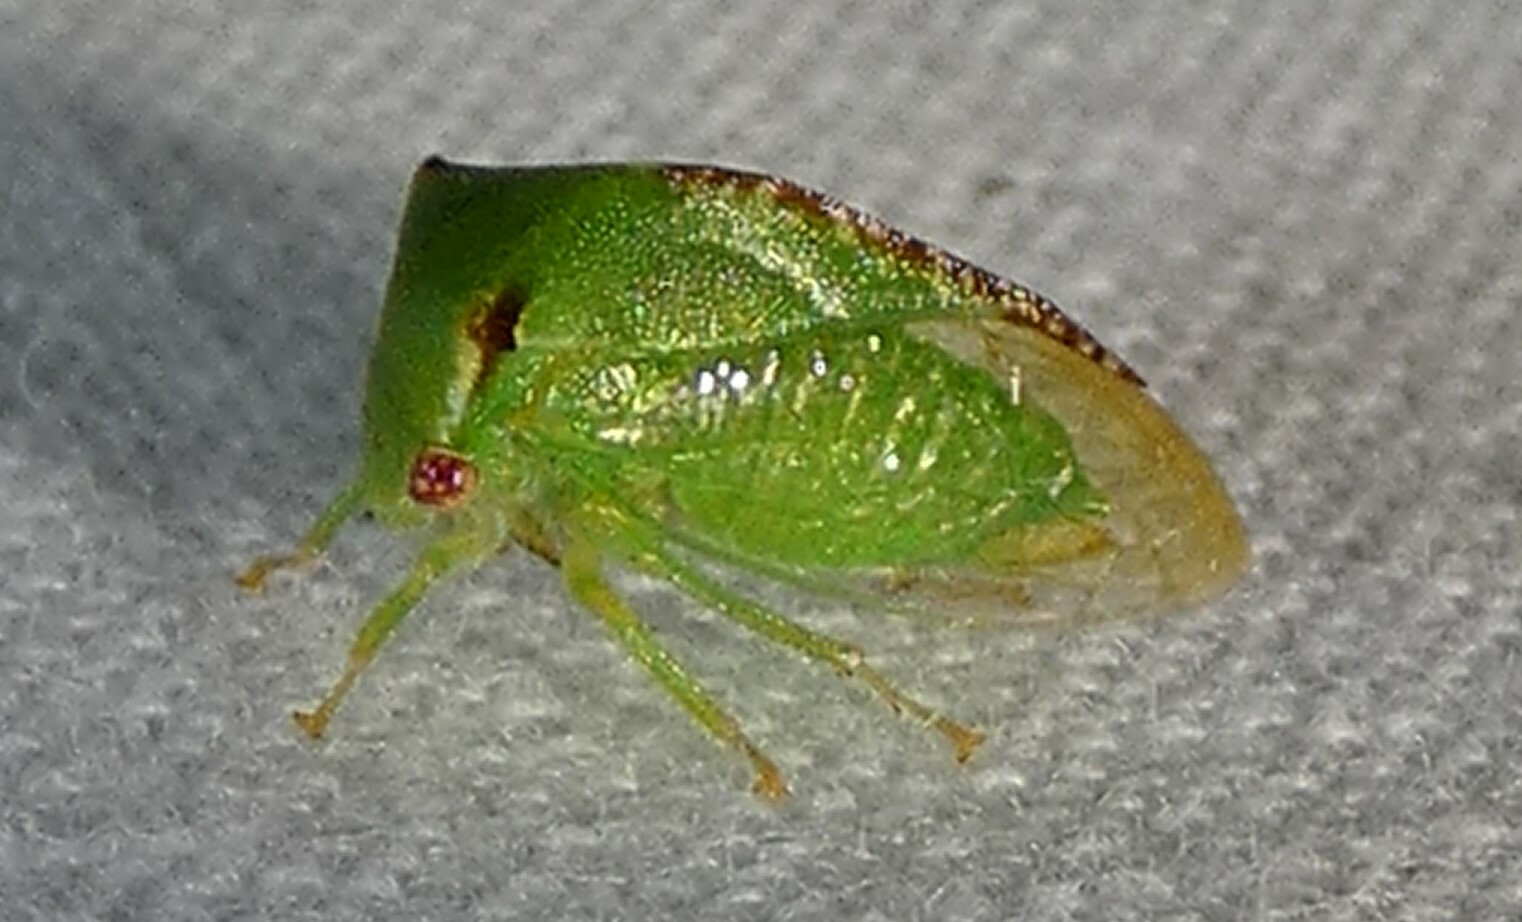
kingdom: Animalia
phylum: Arthropoda
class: Insecta
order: Hemiptera
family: Membracidae
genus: Stictocephala
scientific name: Stictocephala militaris
